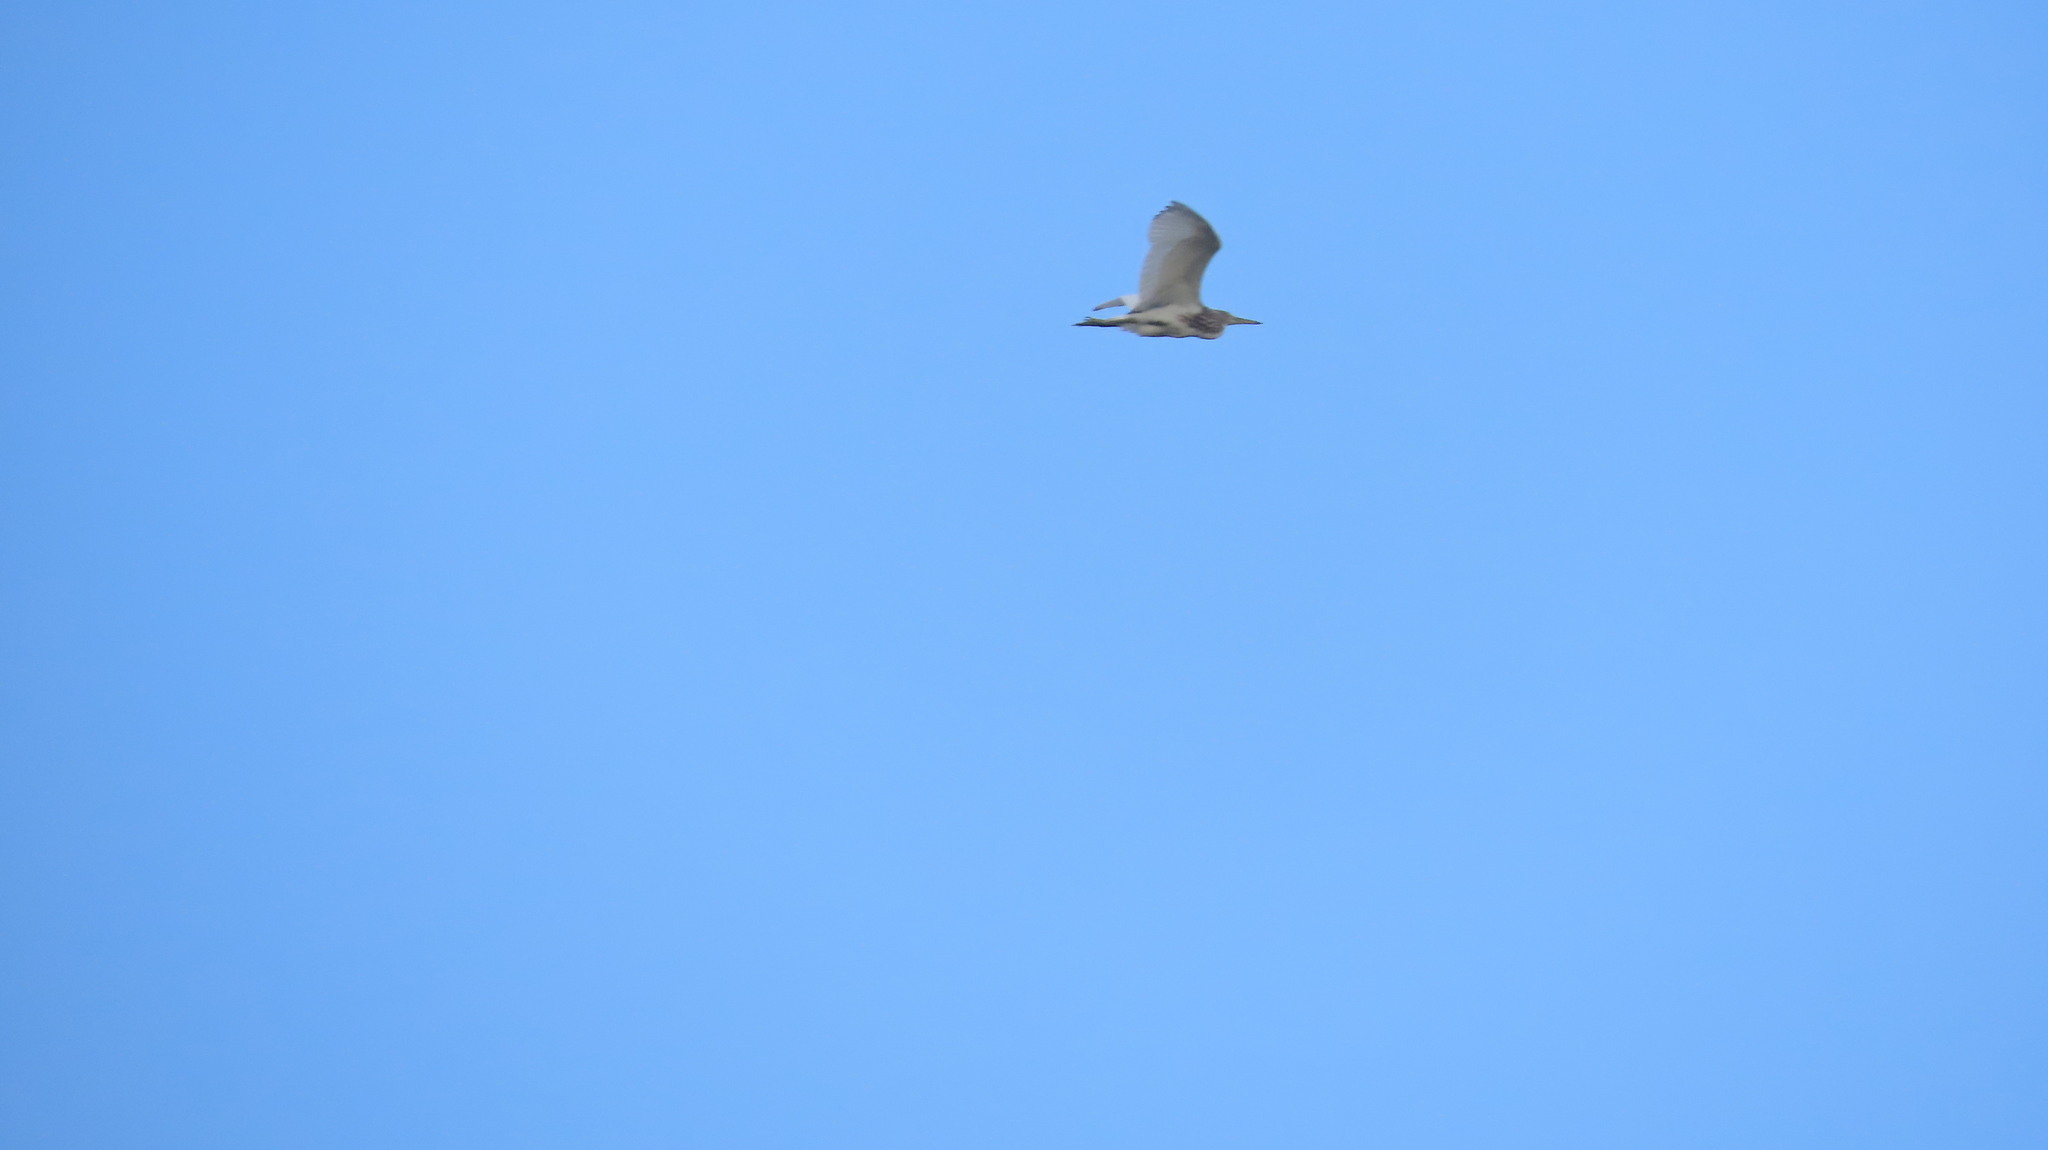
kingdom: Animalia
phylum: Chordata
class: Aves
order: Pelecaniformes
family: Ardeidae
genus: Ardeola
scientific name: Ardeola grayii
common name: Indian pond heron
